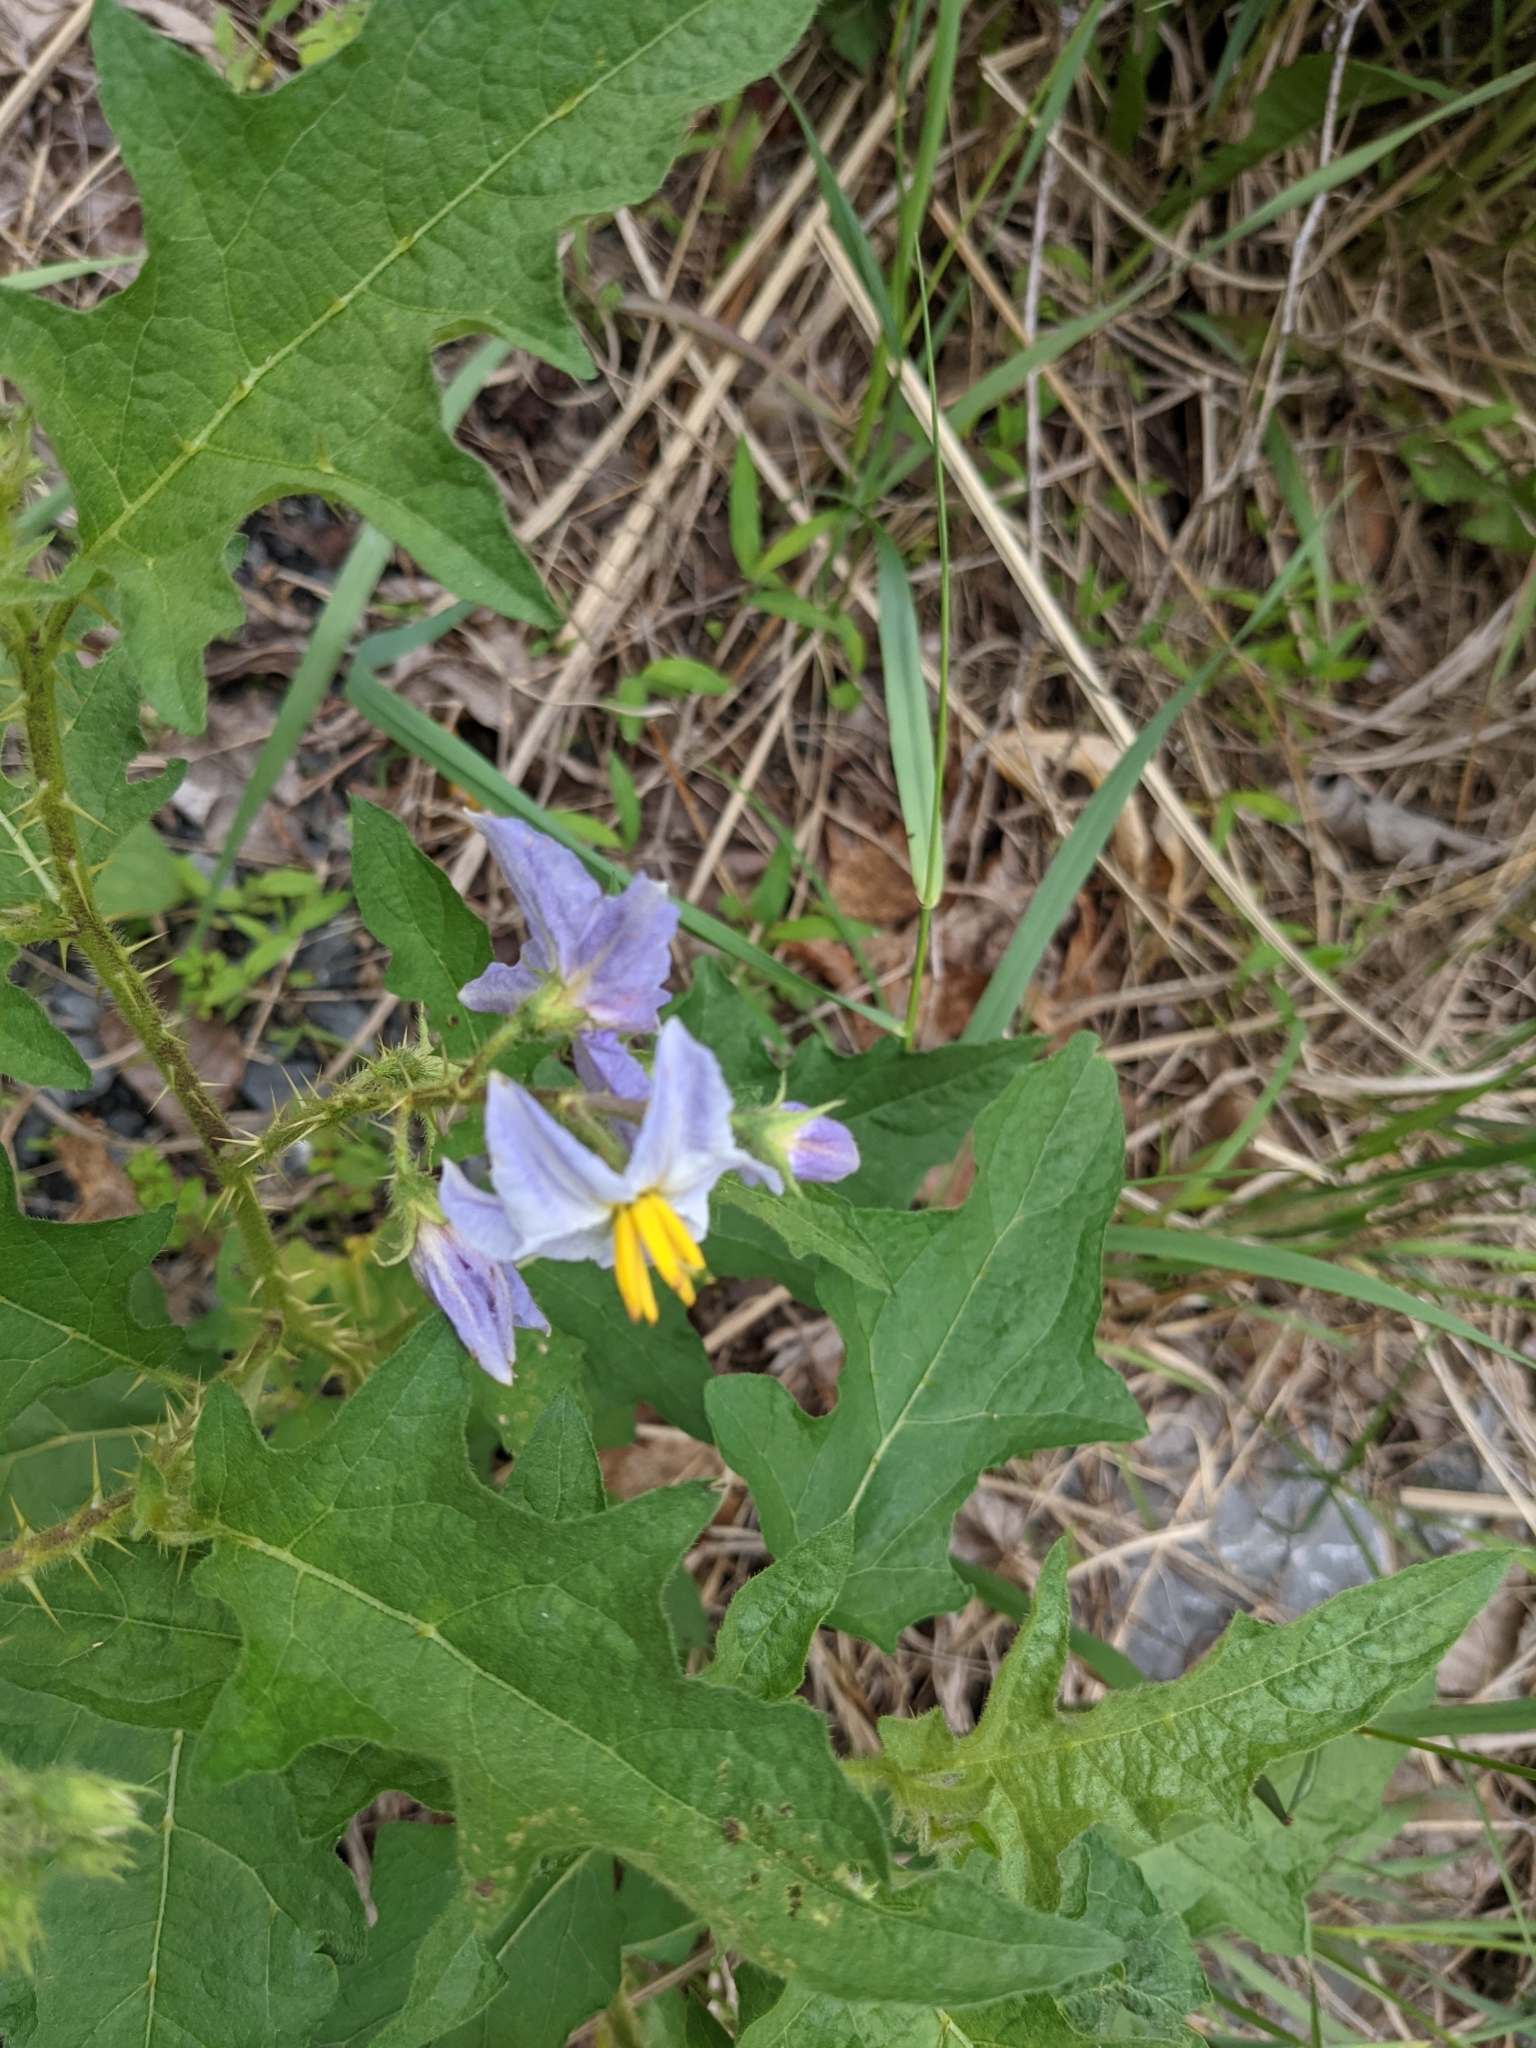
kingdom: Plantae
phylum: Tracheophyta
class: Magnoliopsida
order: Solanales
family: Solanaceae
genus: Solanum
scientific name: Solanum carolinense
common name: Horse-nettle
